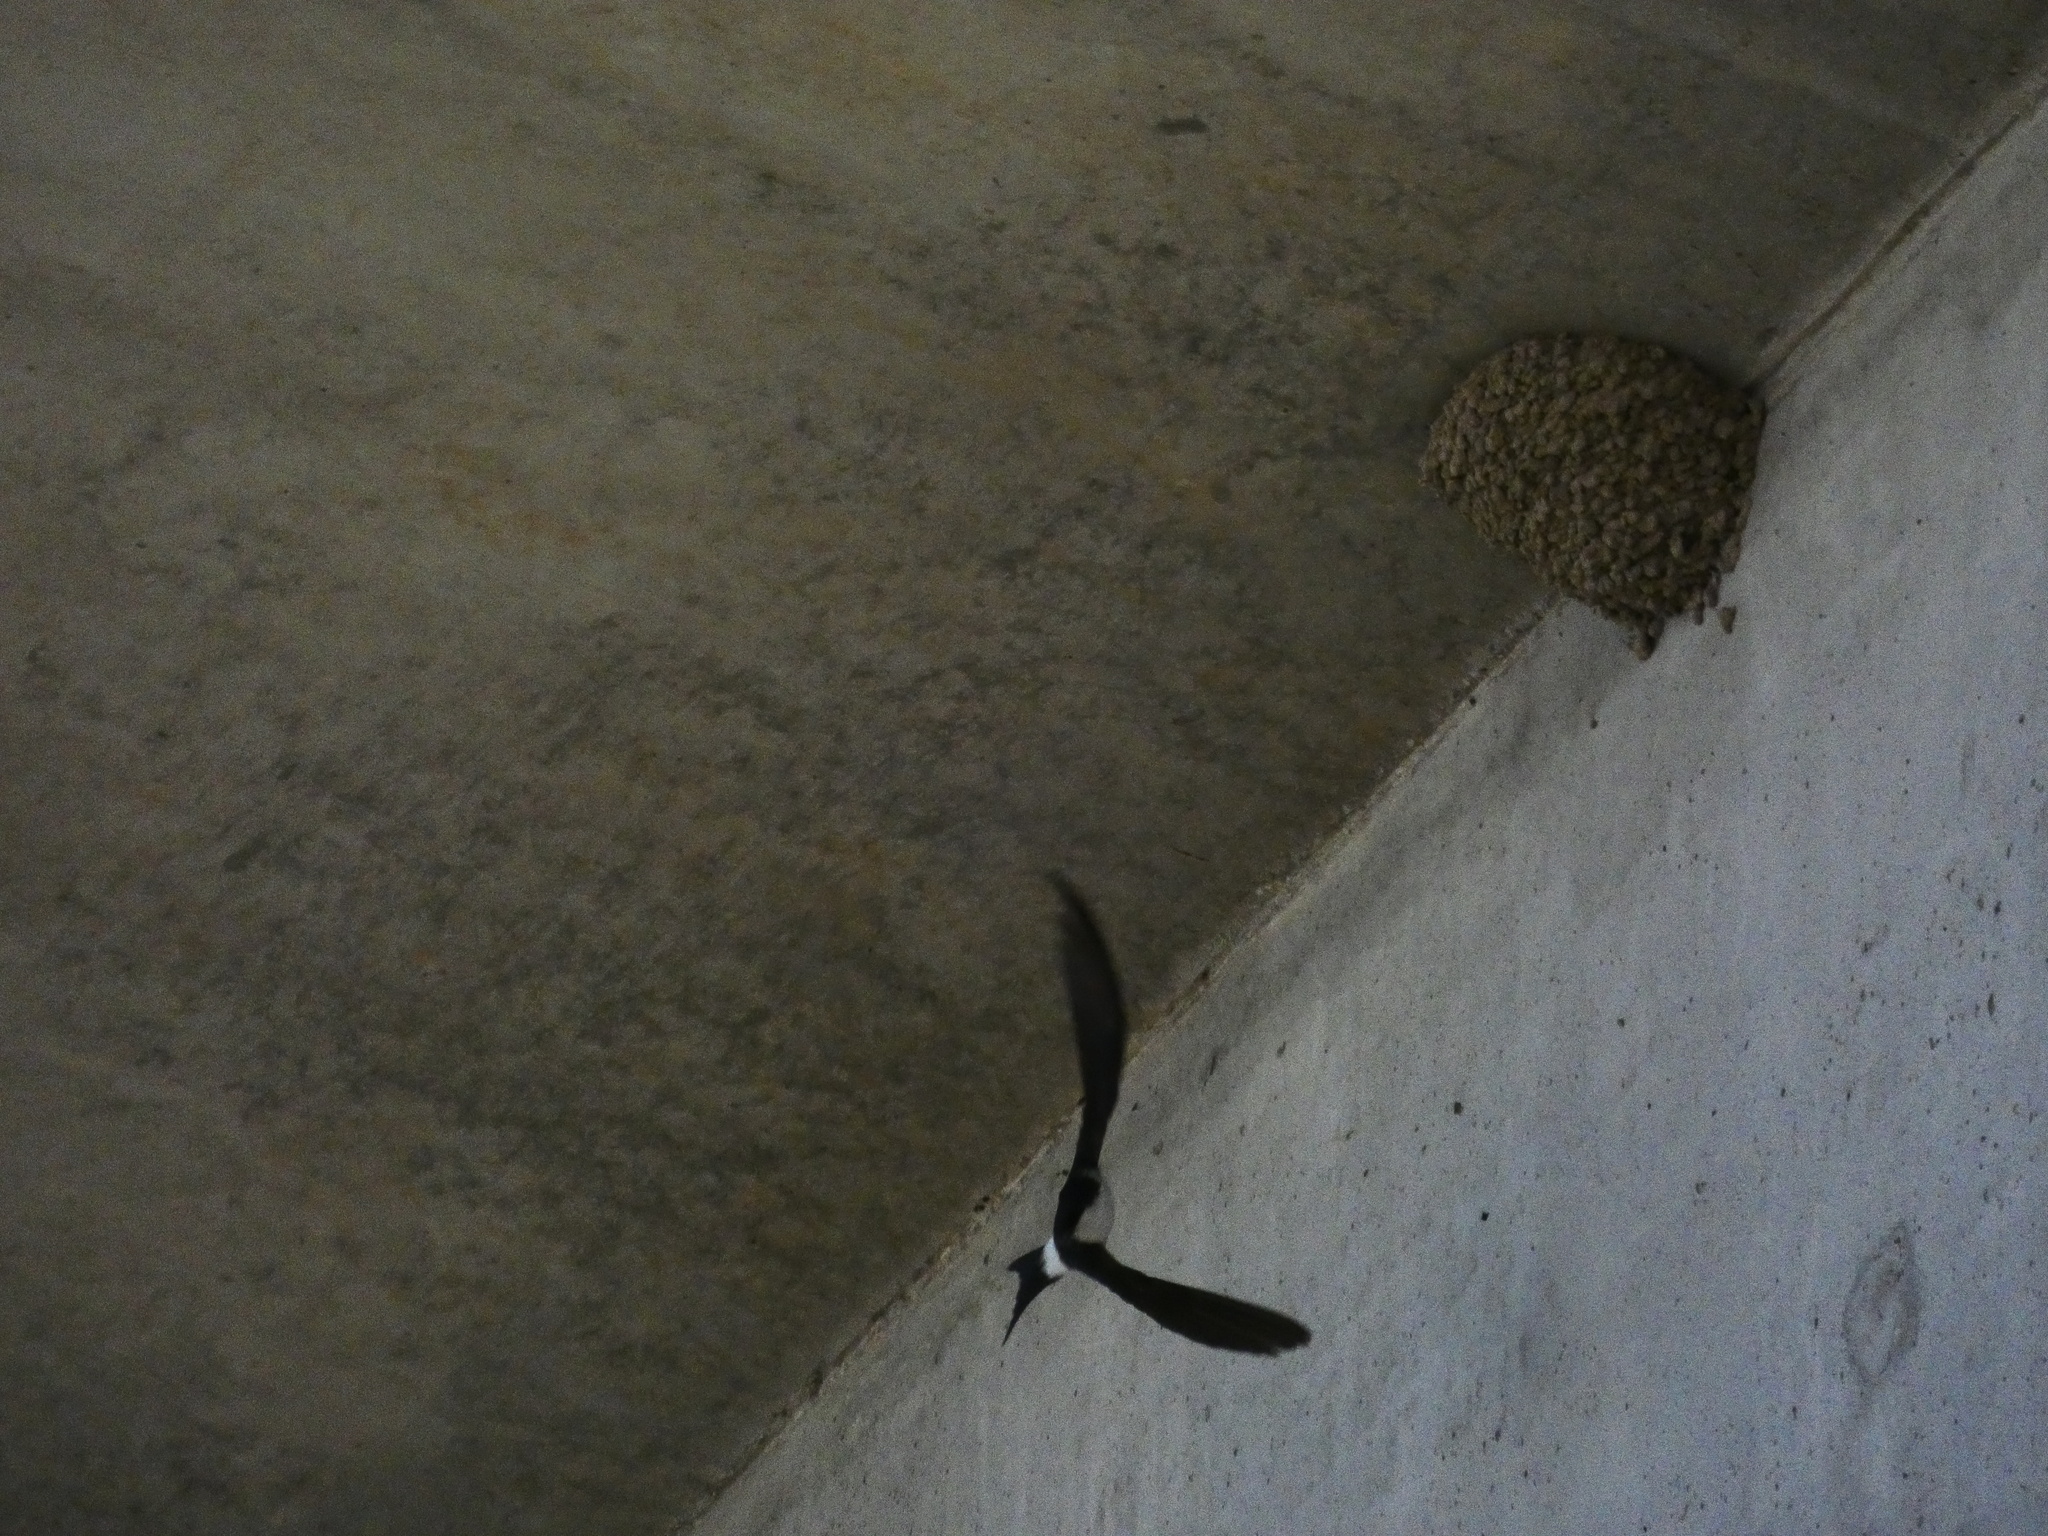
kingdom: Animalia
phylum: Chordata
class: Aves
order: Passeriformes
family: Hirundinidae
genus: Delichon
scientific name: Delichon urbicum
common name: Common house martin
